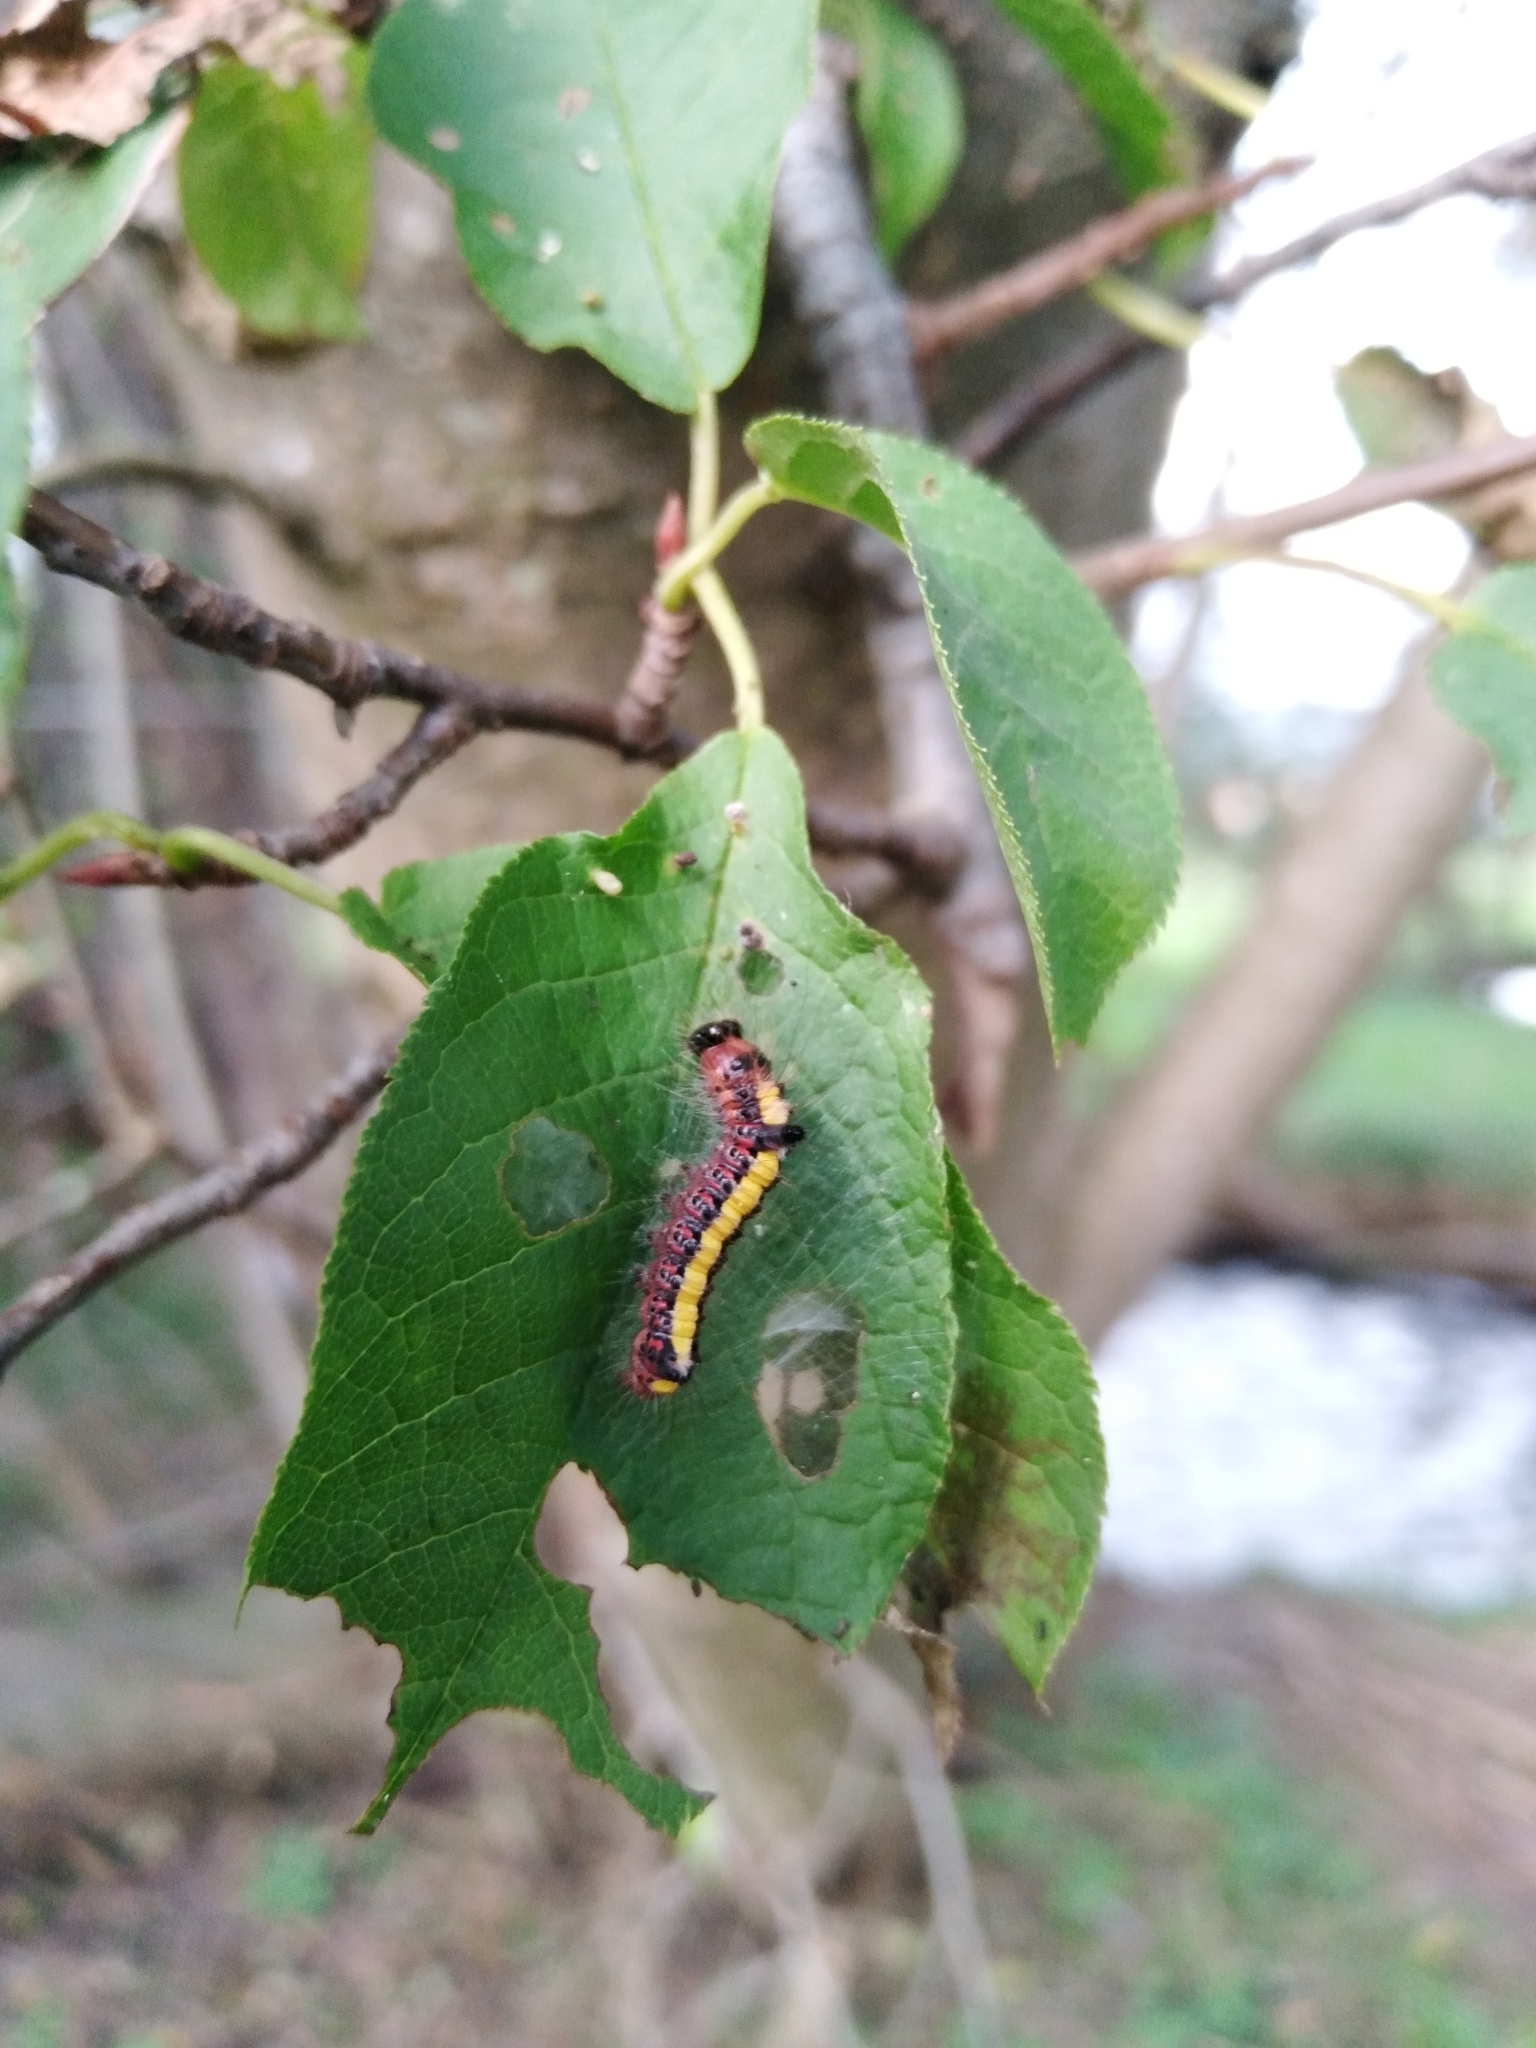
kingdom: Animalia
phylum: Arthropoda
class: Insecta
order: Lepidoptera
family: Noctuidae
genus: Acronicta
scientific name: Acronicta psi
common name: Grey dagger
